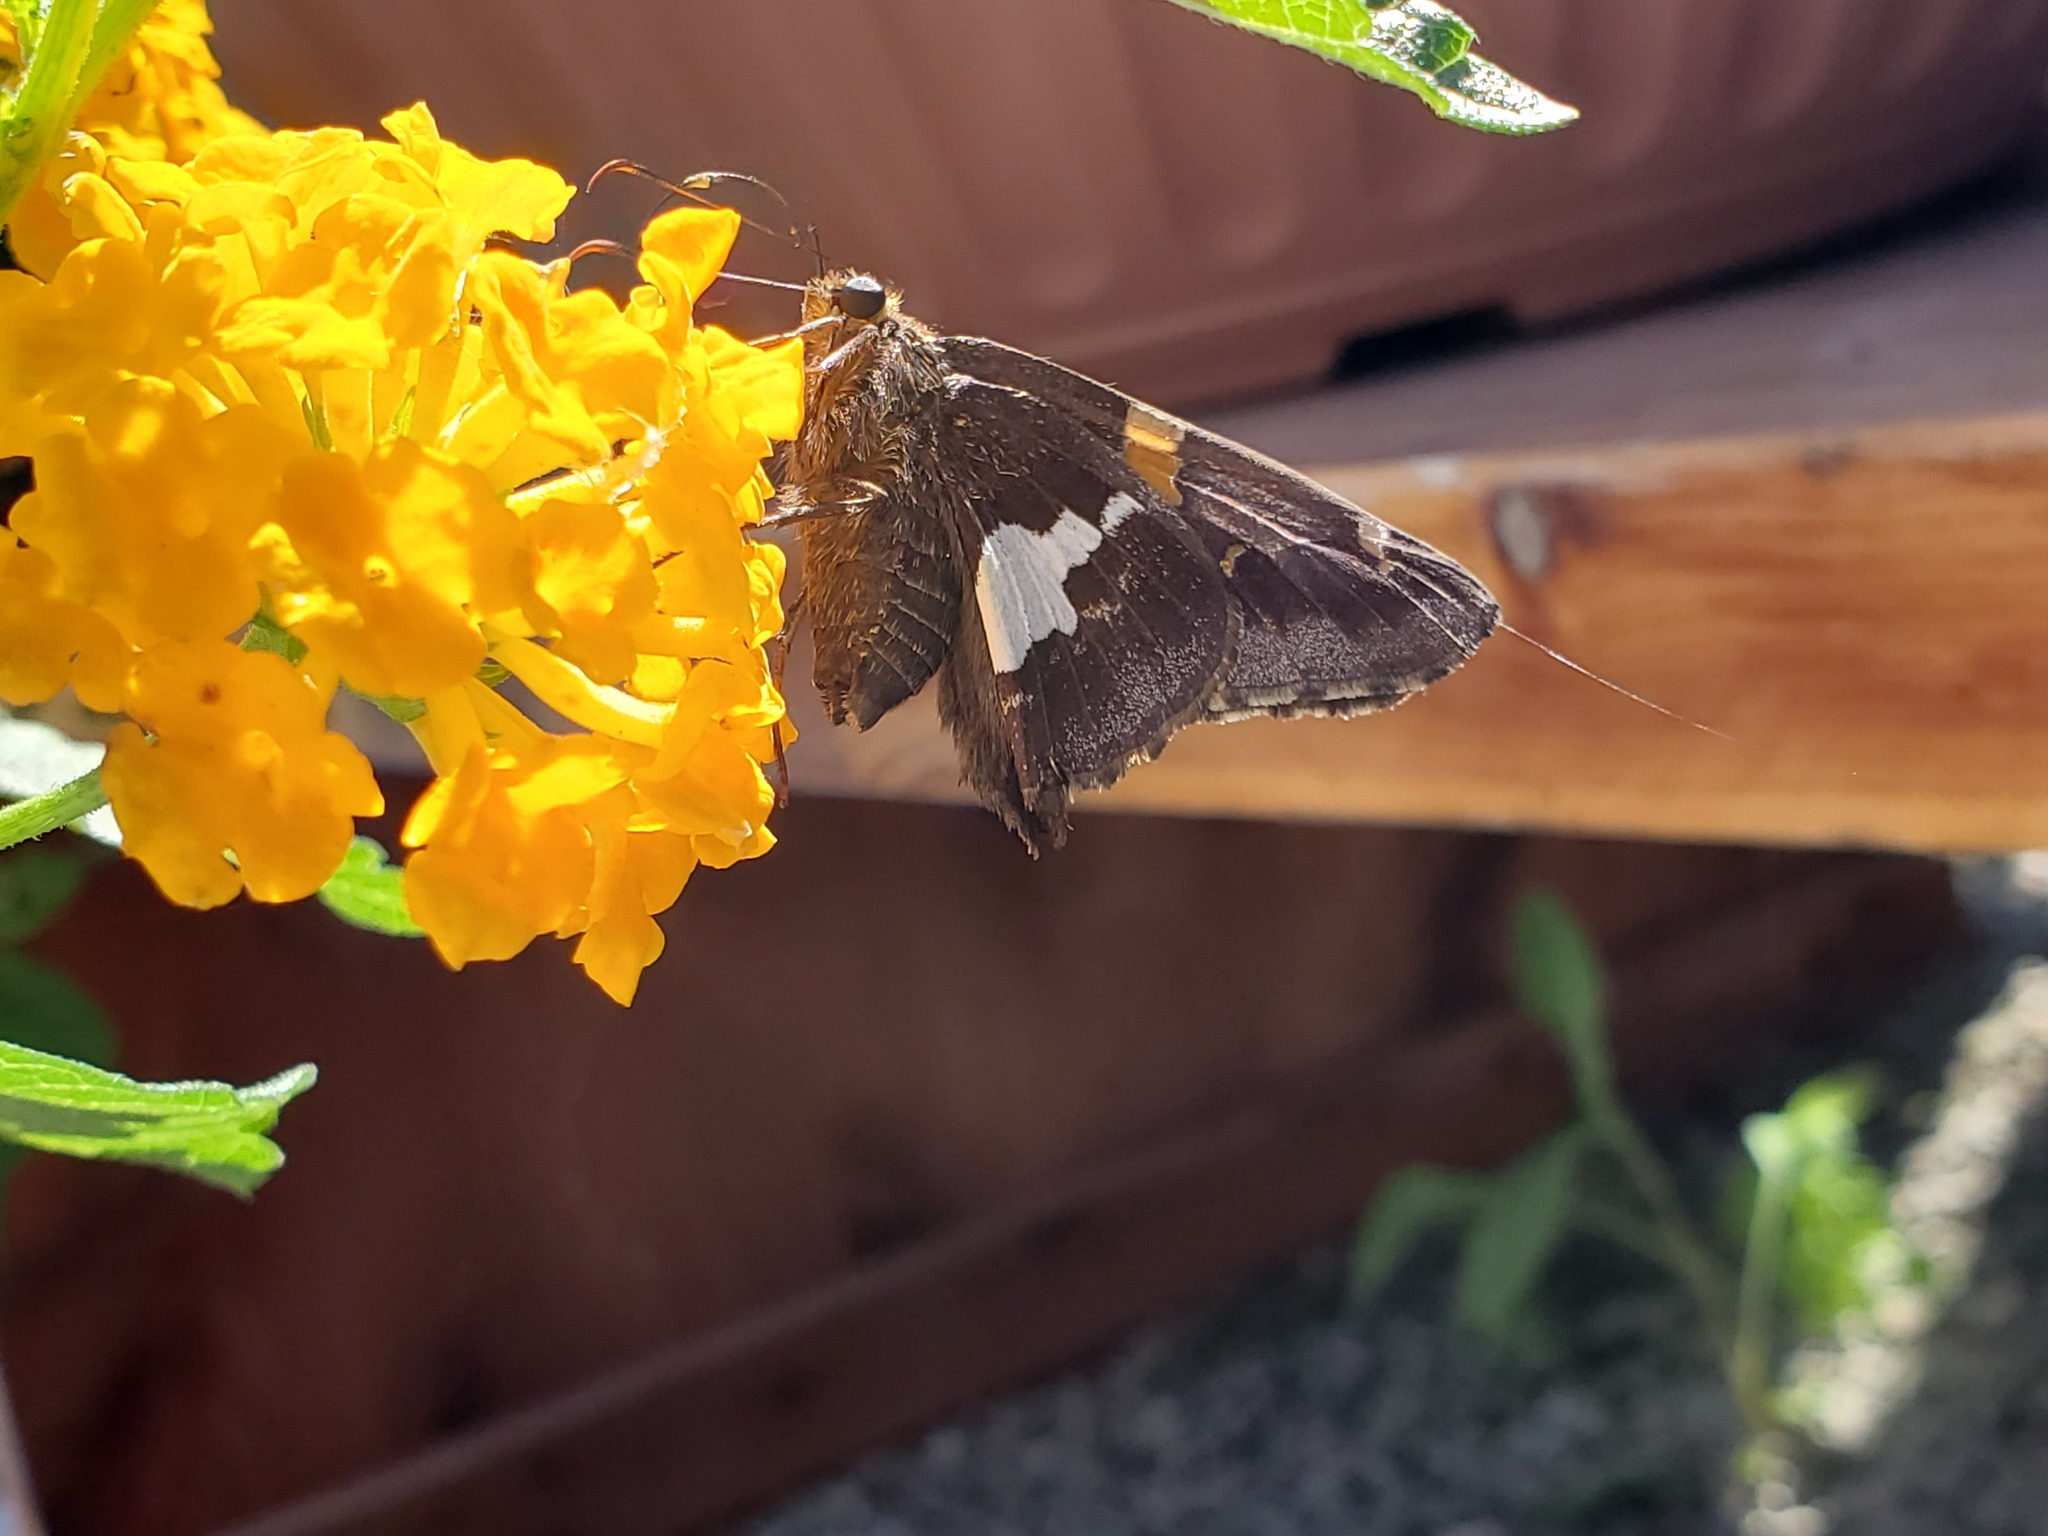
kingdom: Animalia
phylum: Arthropoda
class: Insecta
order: Lepidoptera
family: Hesperiidae
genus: Epargyreus
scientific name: Epargyreus clarus
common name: Silver-spotted skipper
